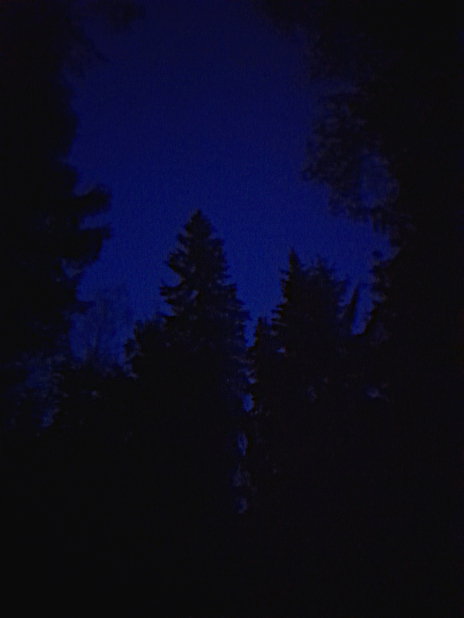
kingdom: Plantae
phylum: Tracheophyta
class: Pinopsida
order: Pinales
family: Pinaceae
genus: Picea
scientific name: Picea abies
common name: Norway spruce
